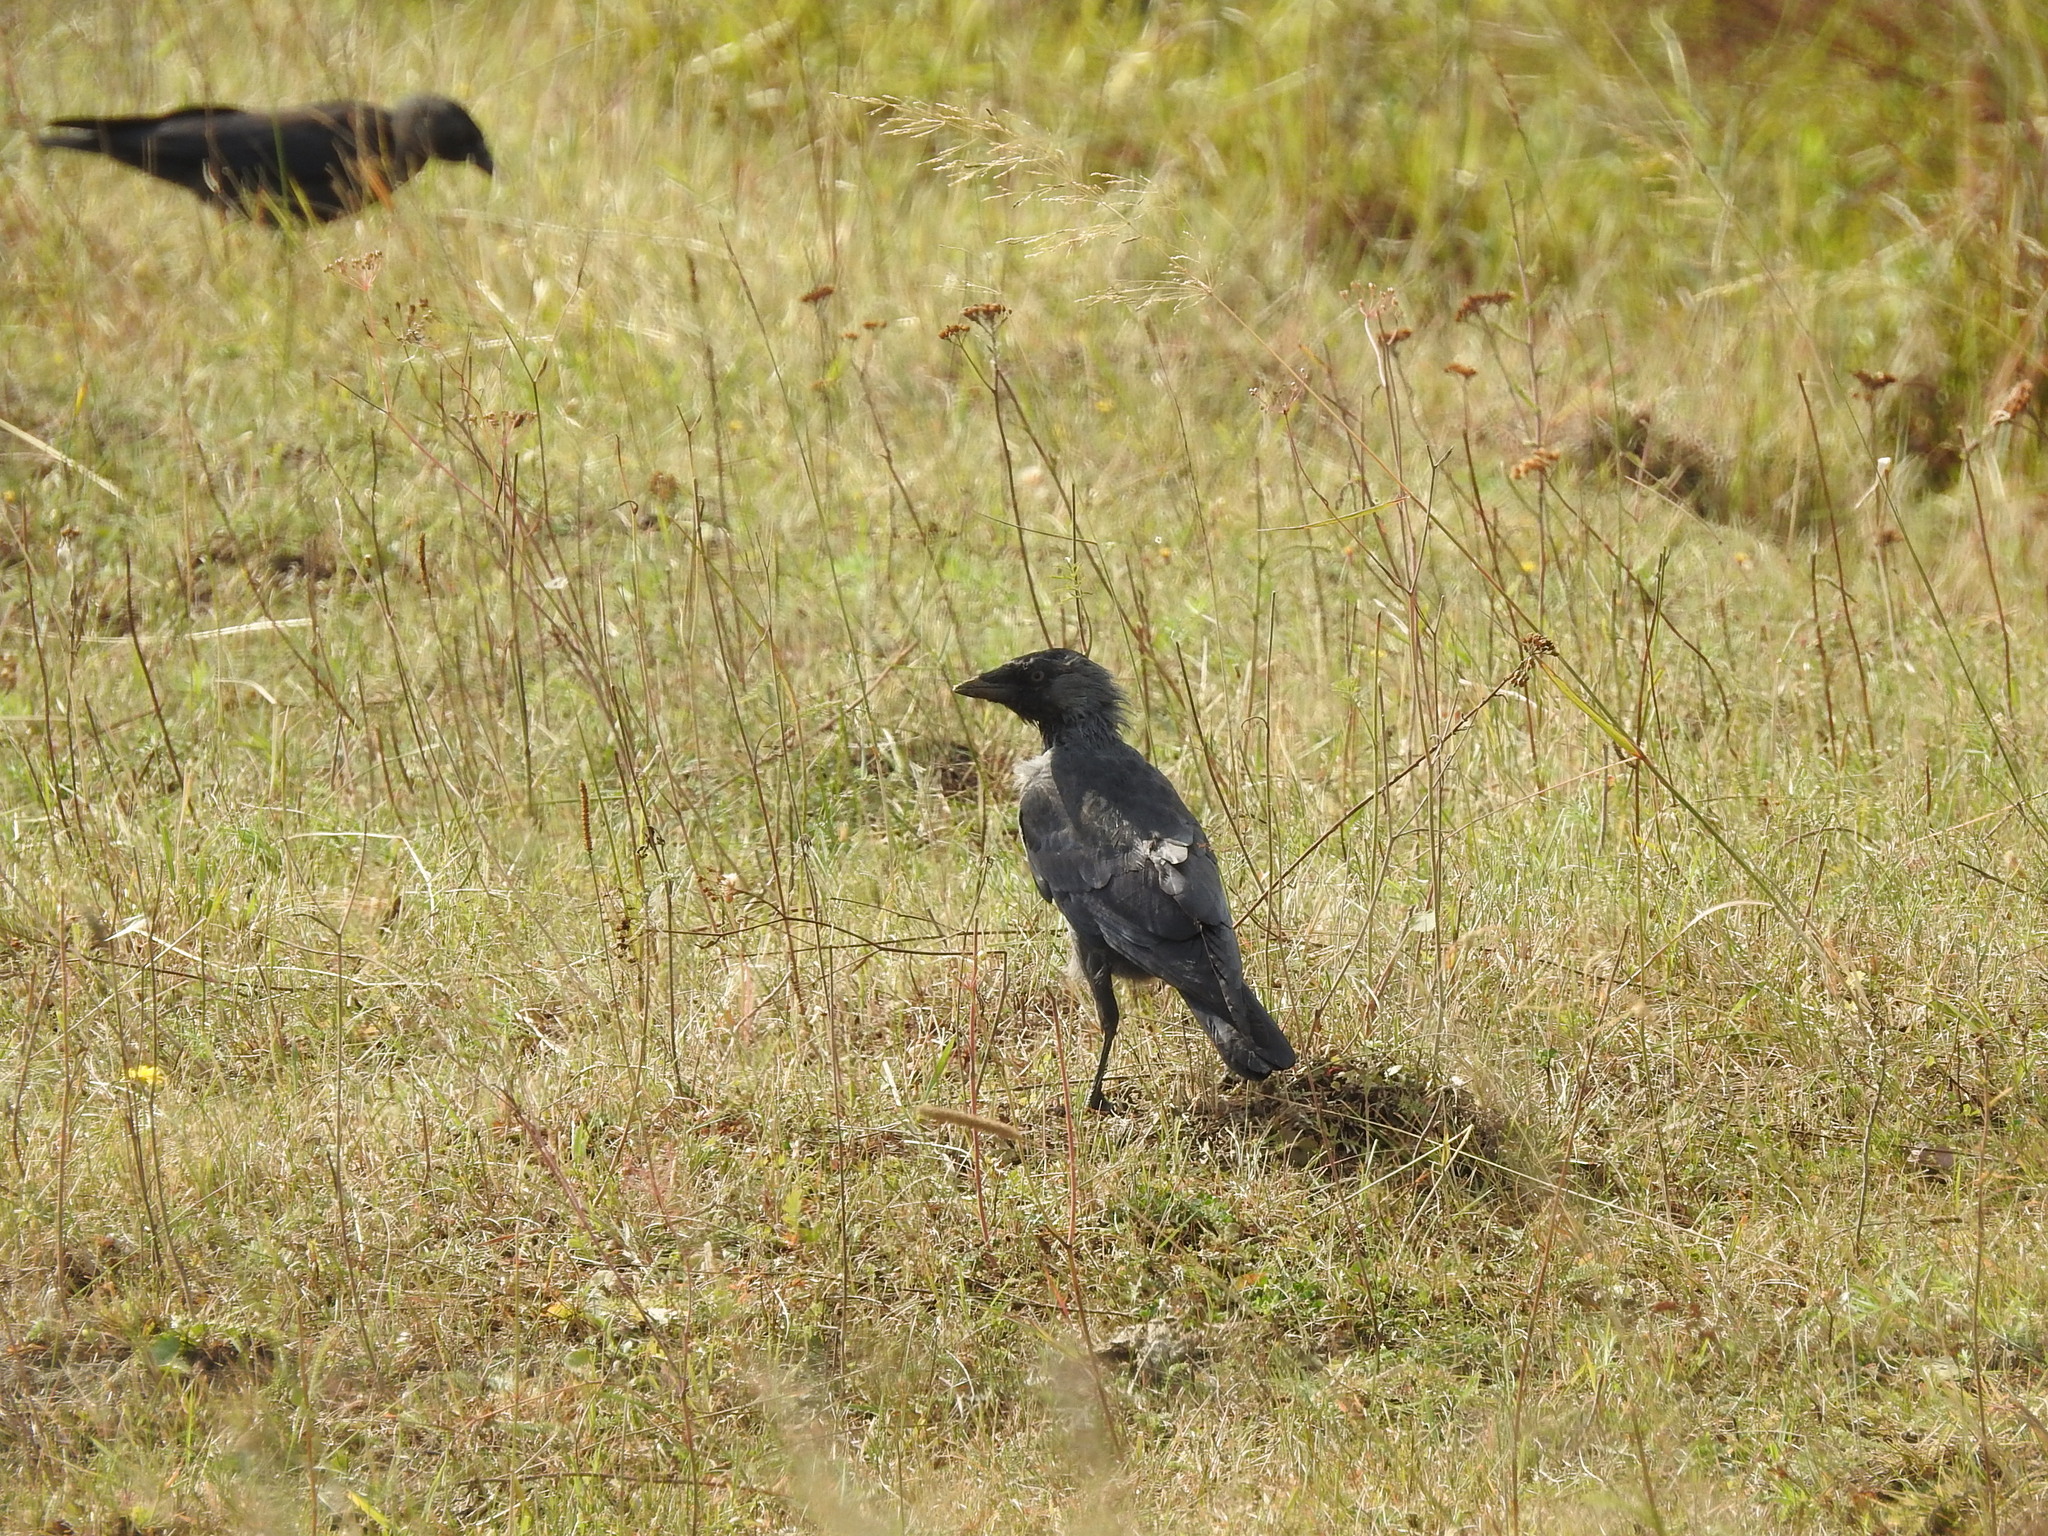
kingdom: Animalia
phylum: Chordata
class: Aves
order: Passeriformes
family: Corvidae
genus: Coloeus
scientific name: Coloeus monedula
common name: Western jackdaw
